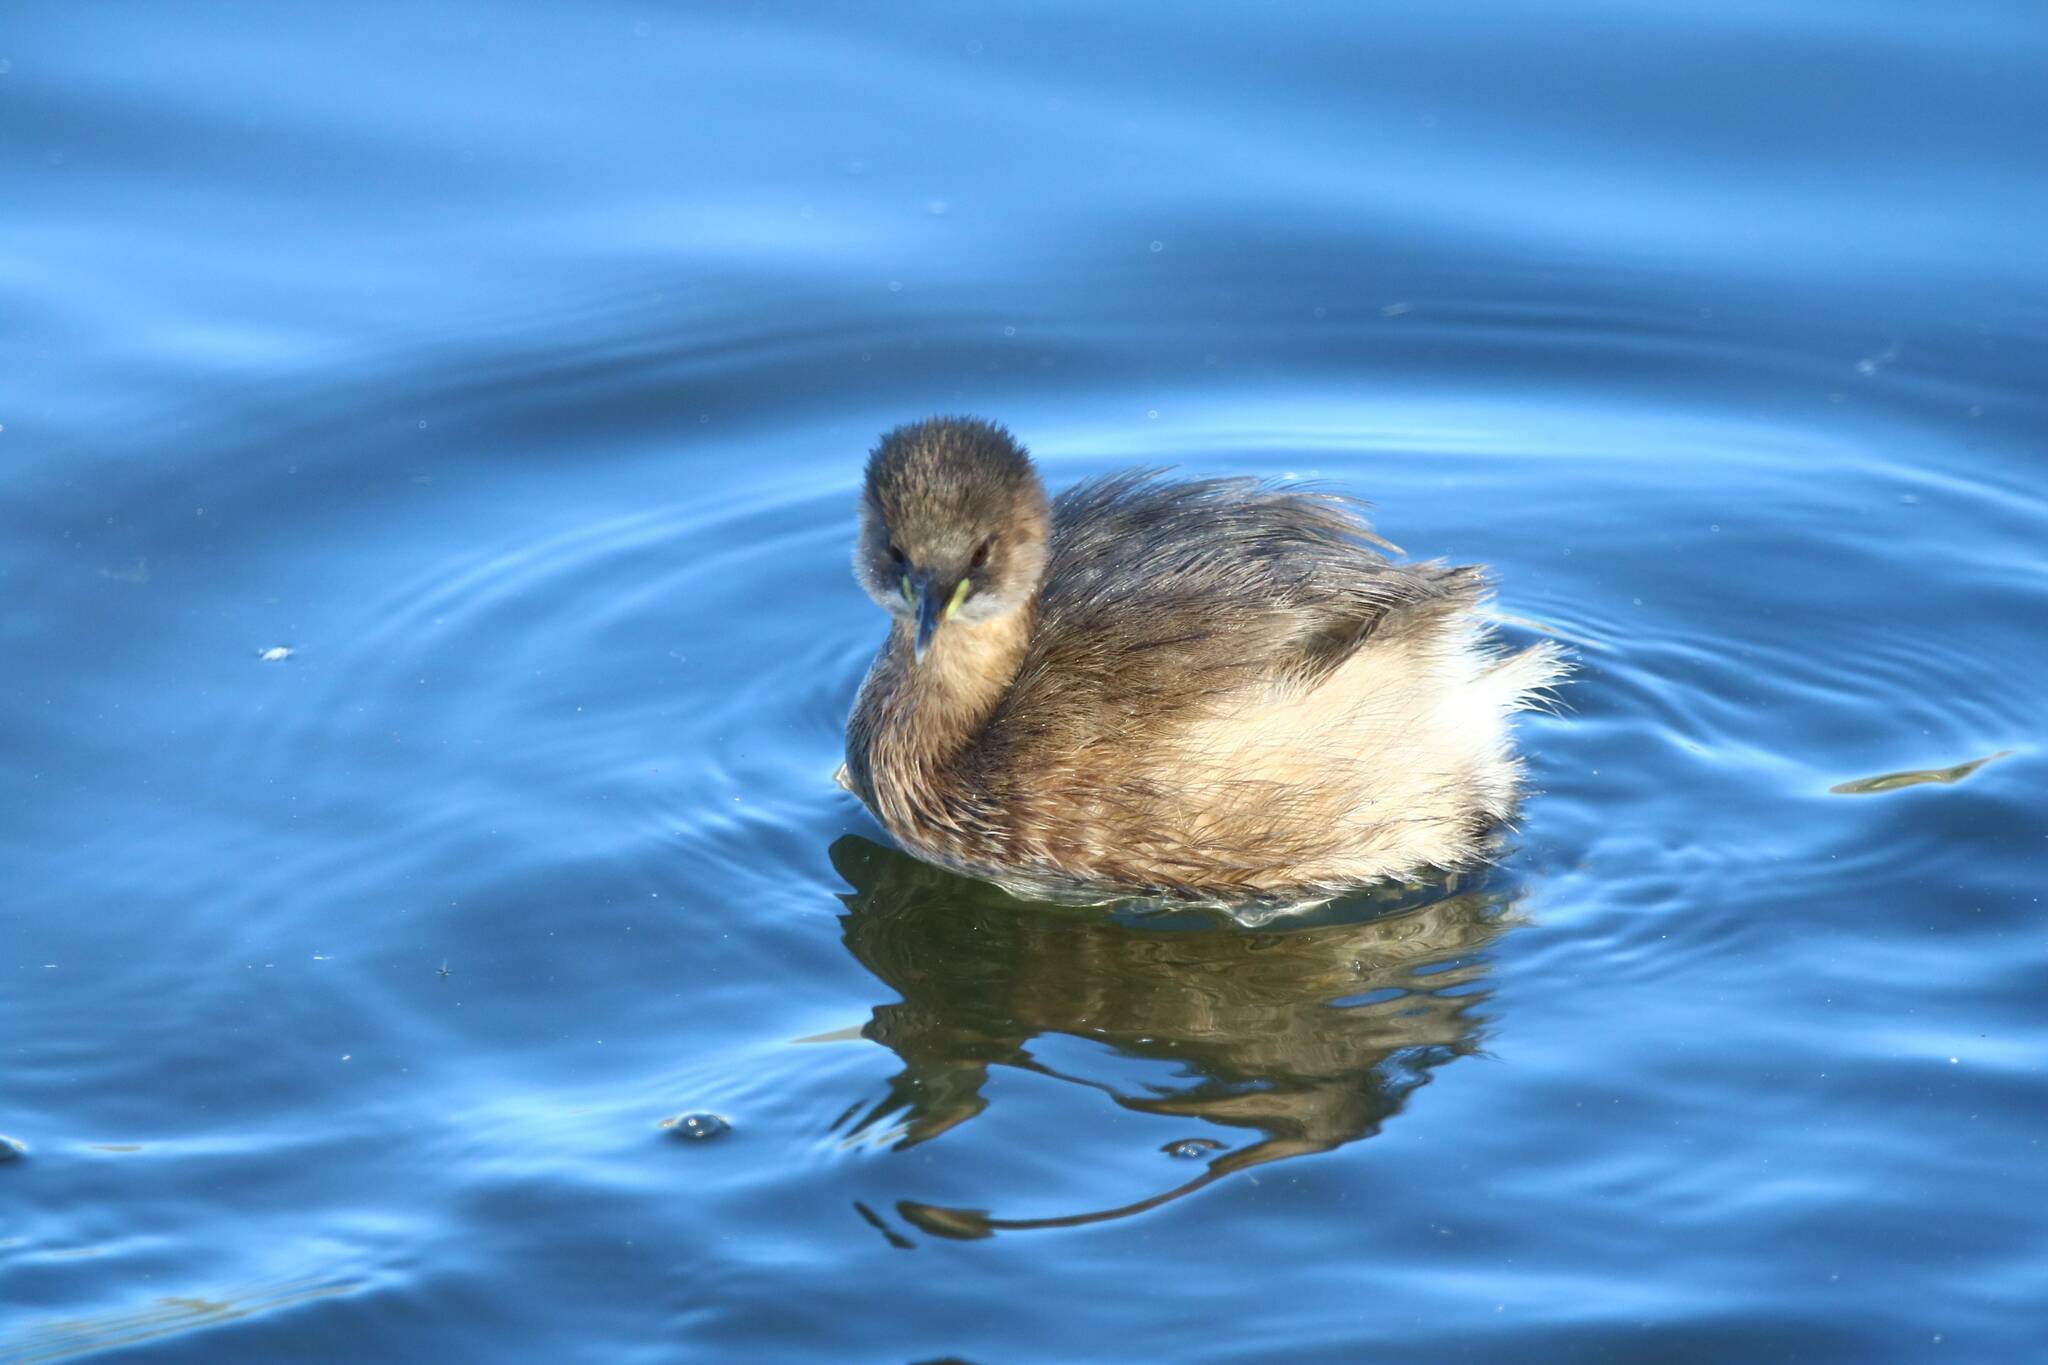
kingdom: Animalia
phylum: Chordata
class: Aves
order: Podicipediformes
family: Podicipedidae
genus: Tachybaptus
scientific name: Tachybaptus ruficollis
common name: Little grebe
